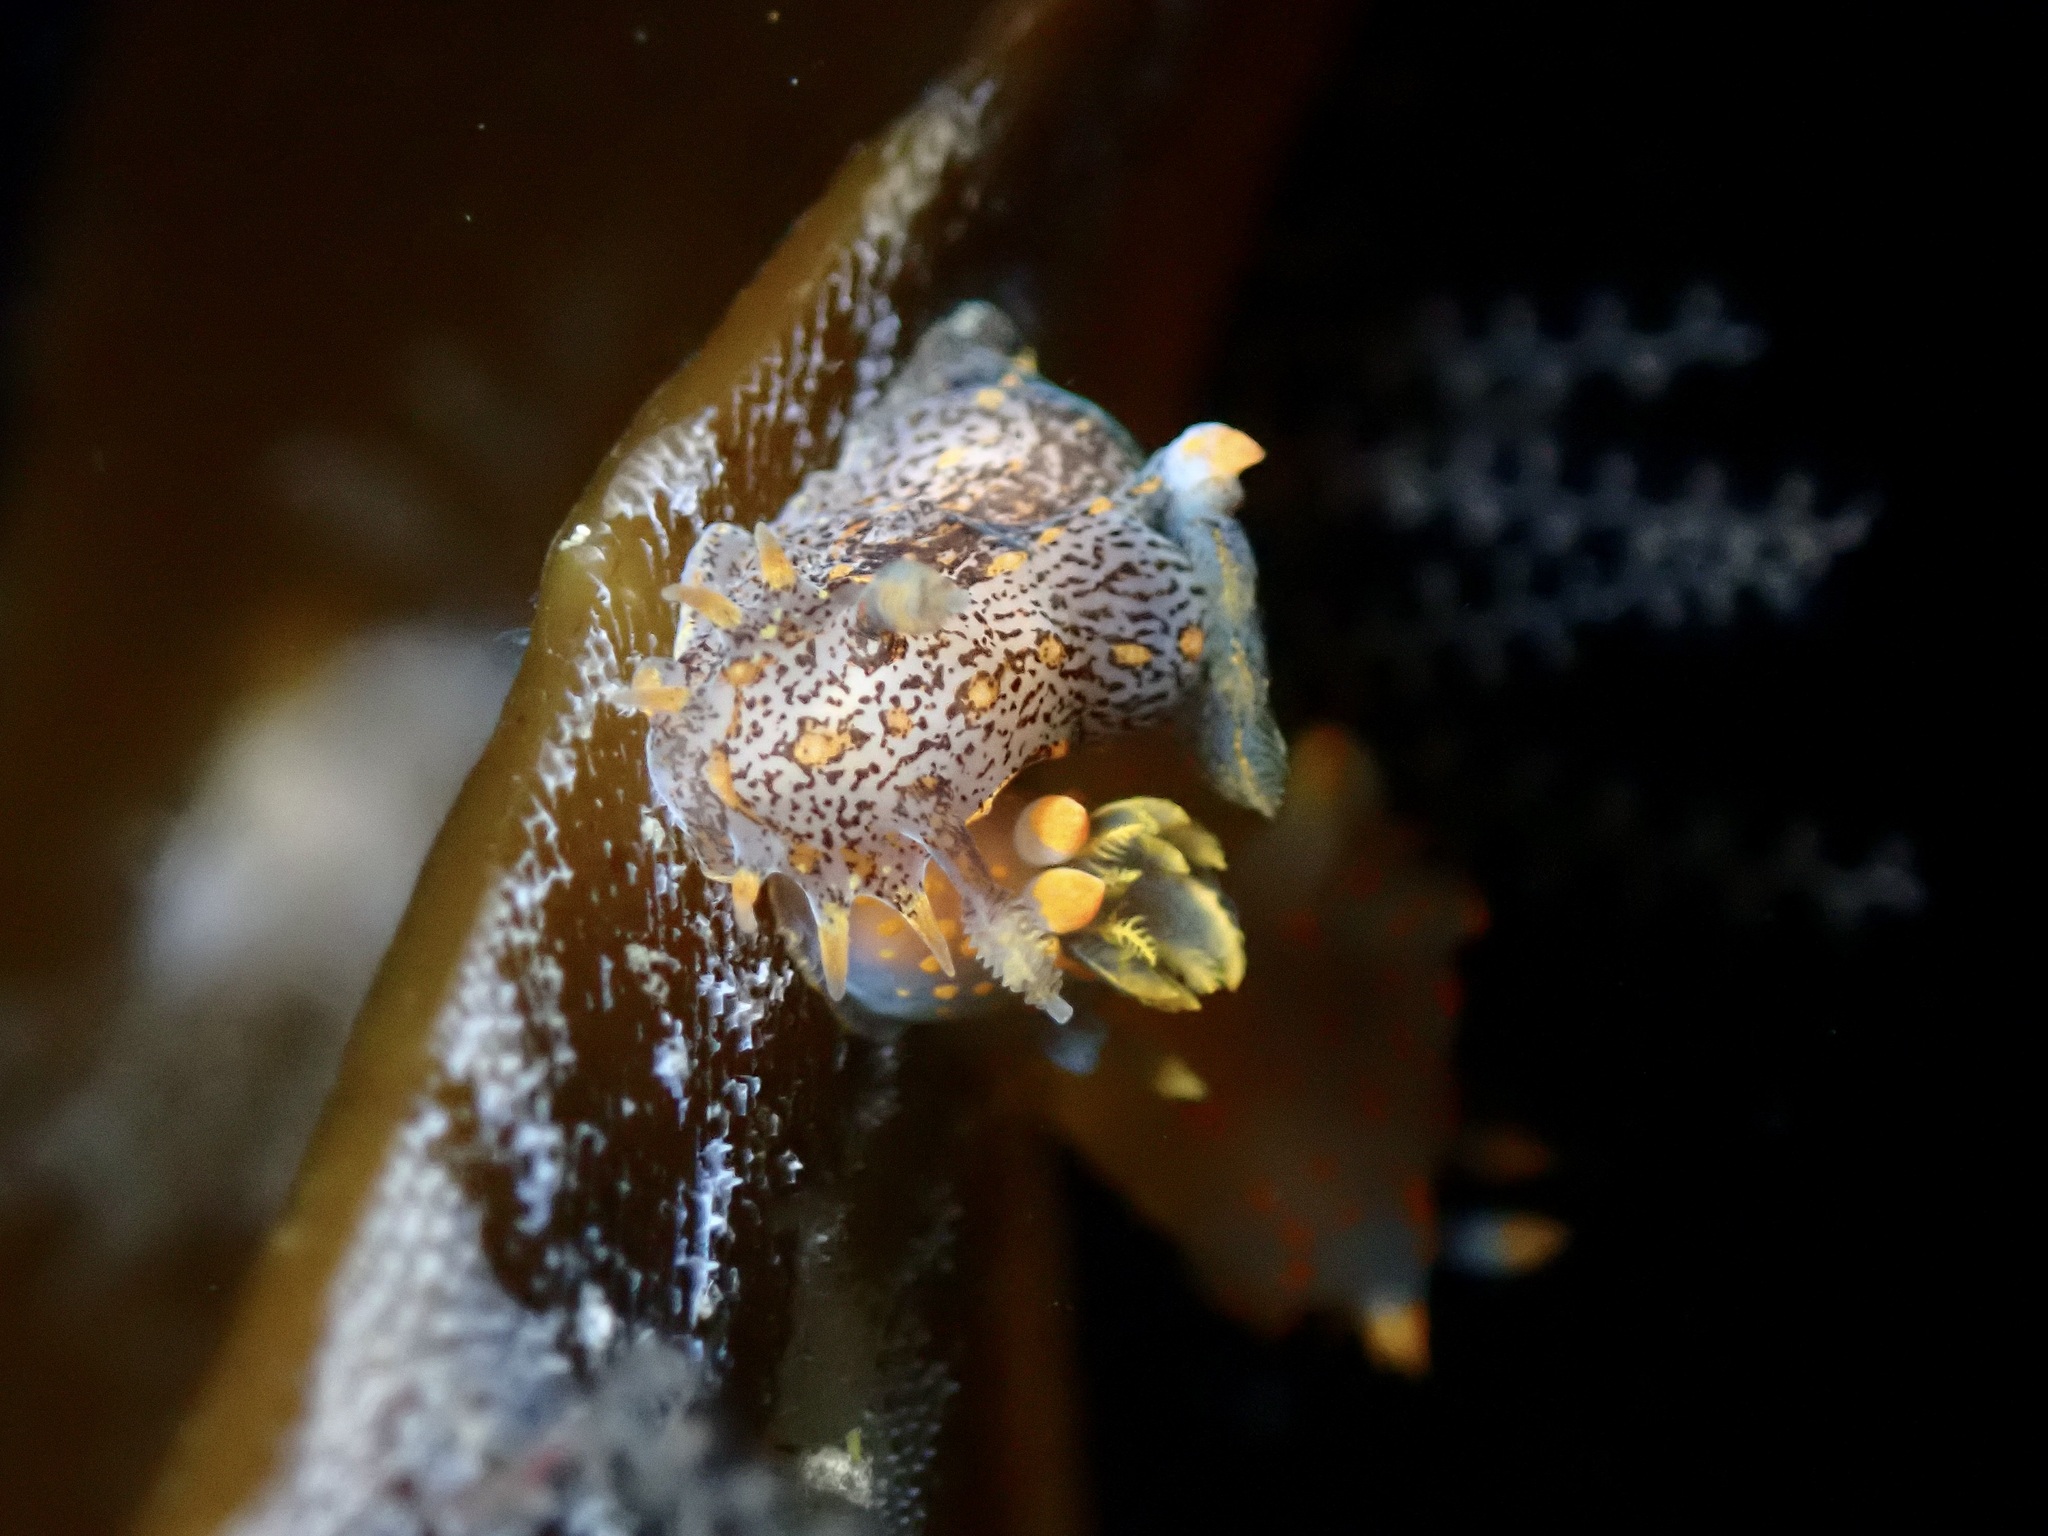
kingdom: Animalia
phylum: Mollusca
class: Gastropoda
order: Nudibranchia
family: Polyceridae
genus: Polycera
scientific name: Polycera norvegica
